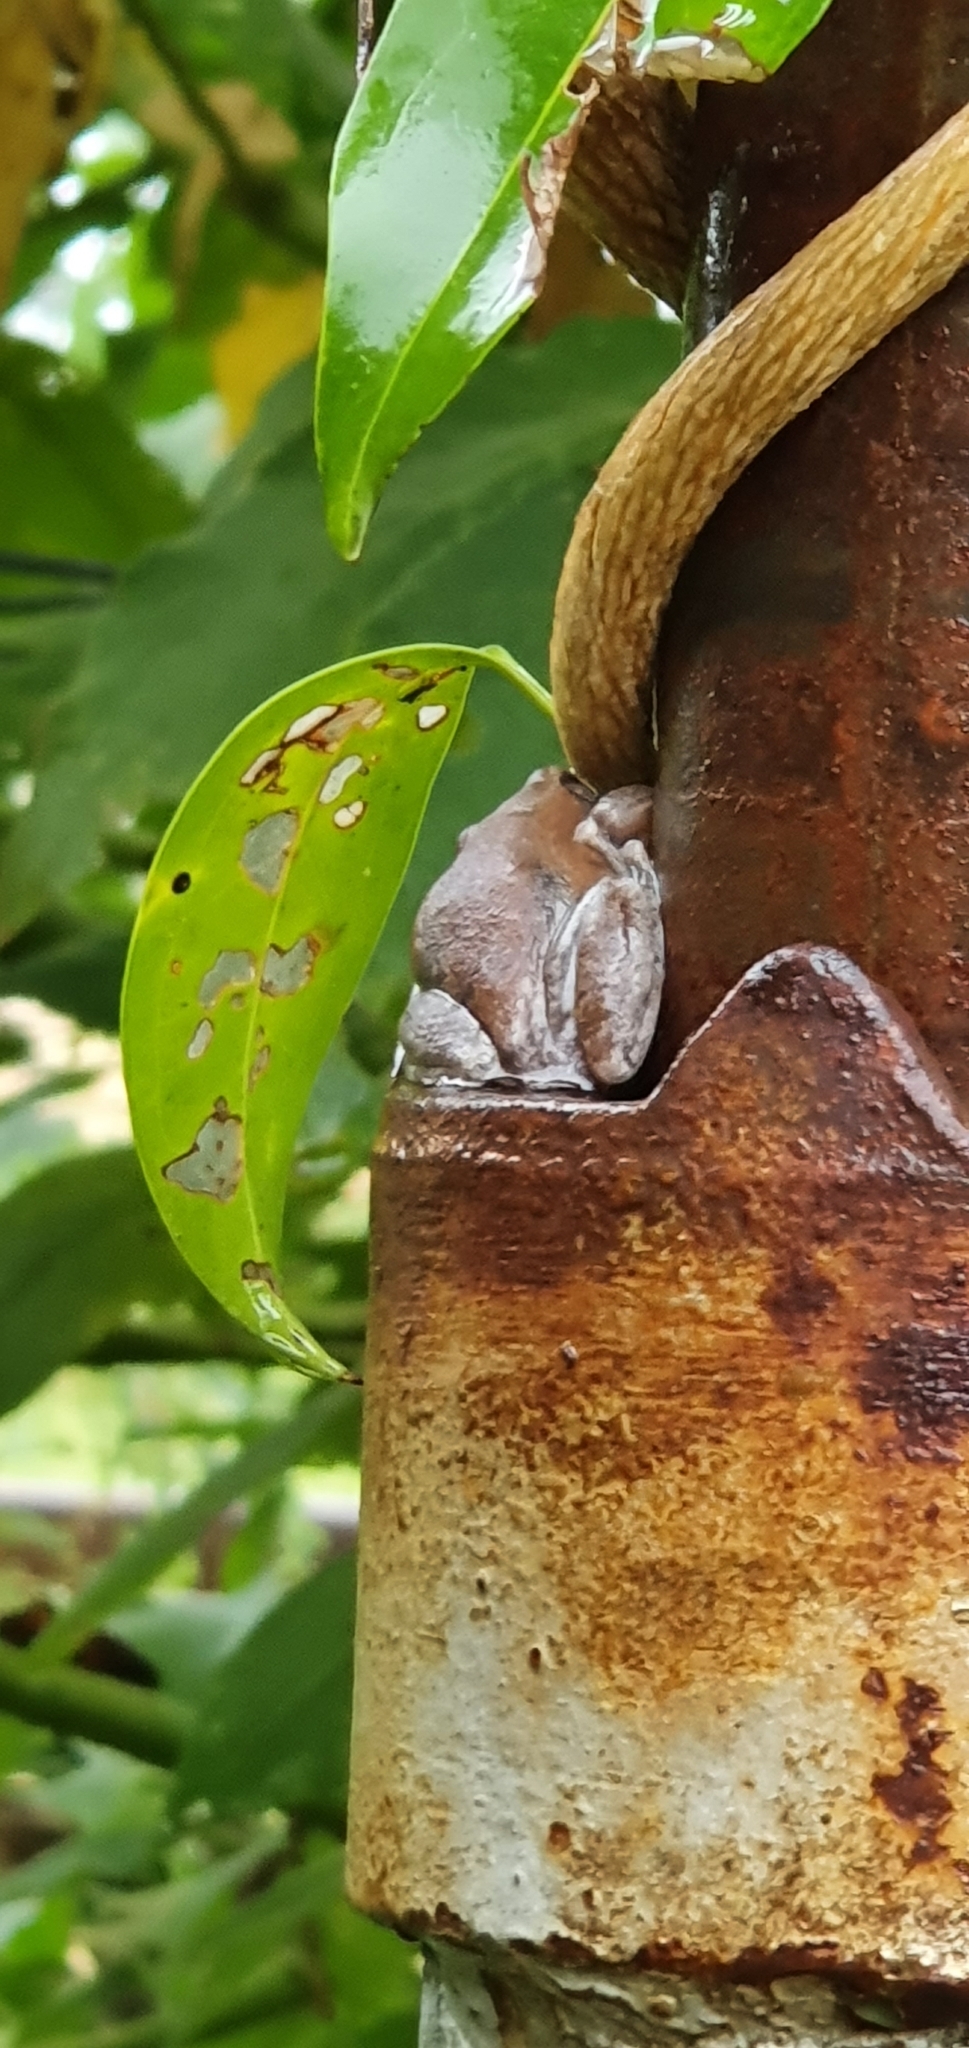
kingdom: Animalia
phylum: Chordata
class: Amphibia
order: Anura
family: Pelodryadidae
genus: Litoria
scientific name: Litoria rubella
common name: Desert tree frog
